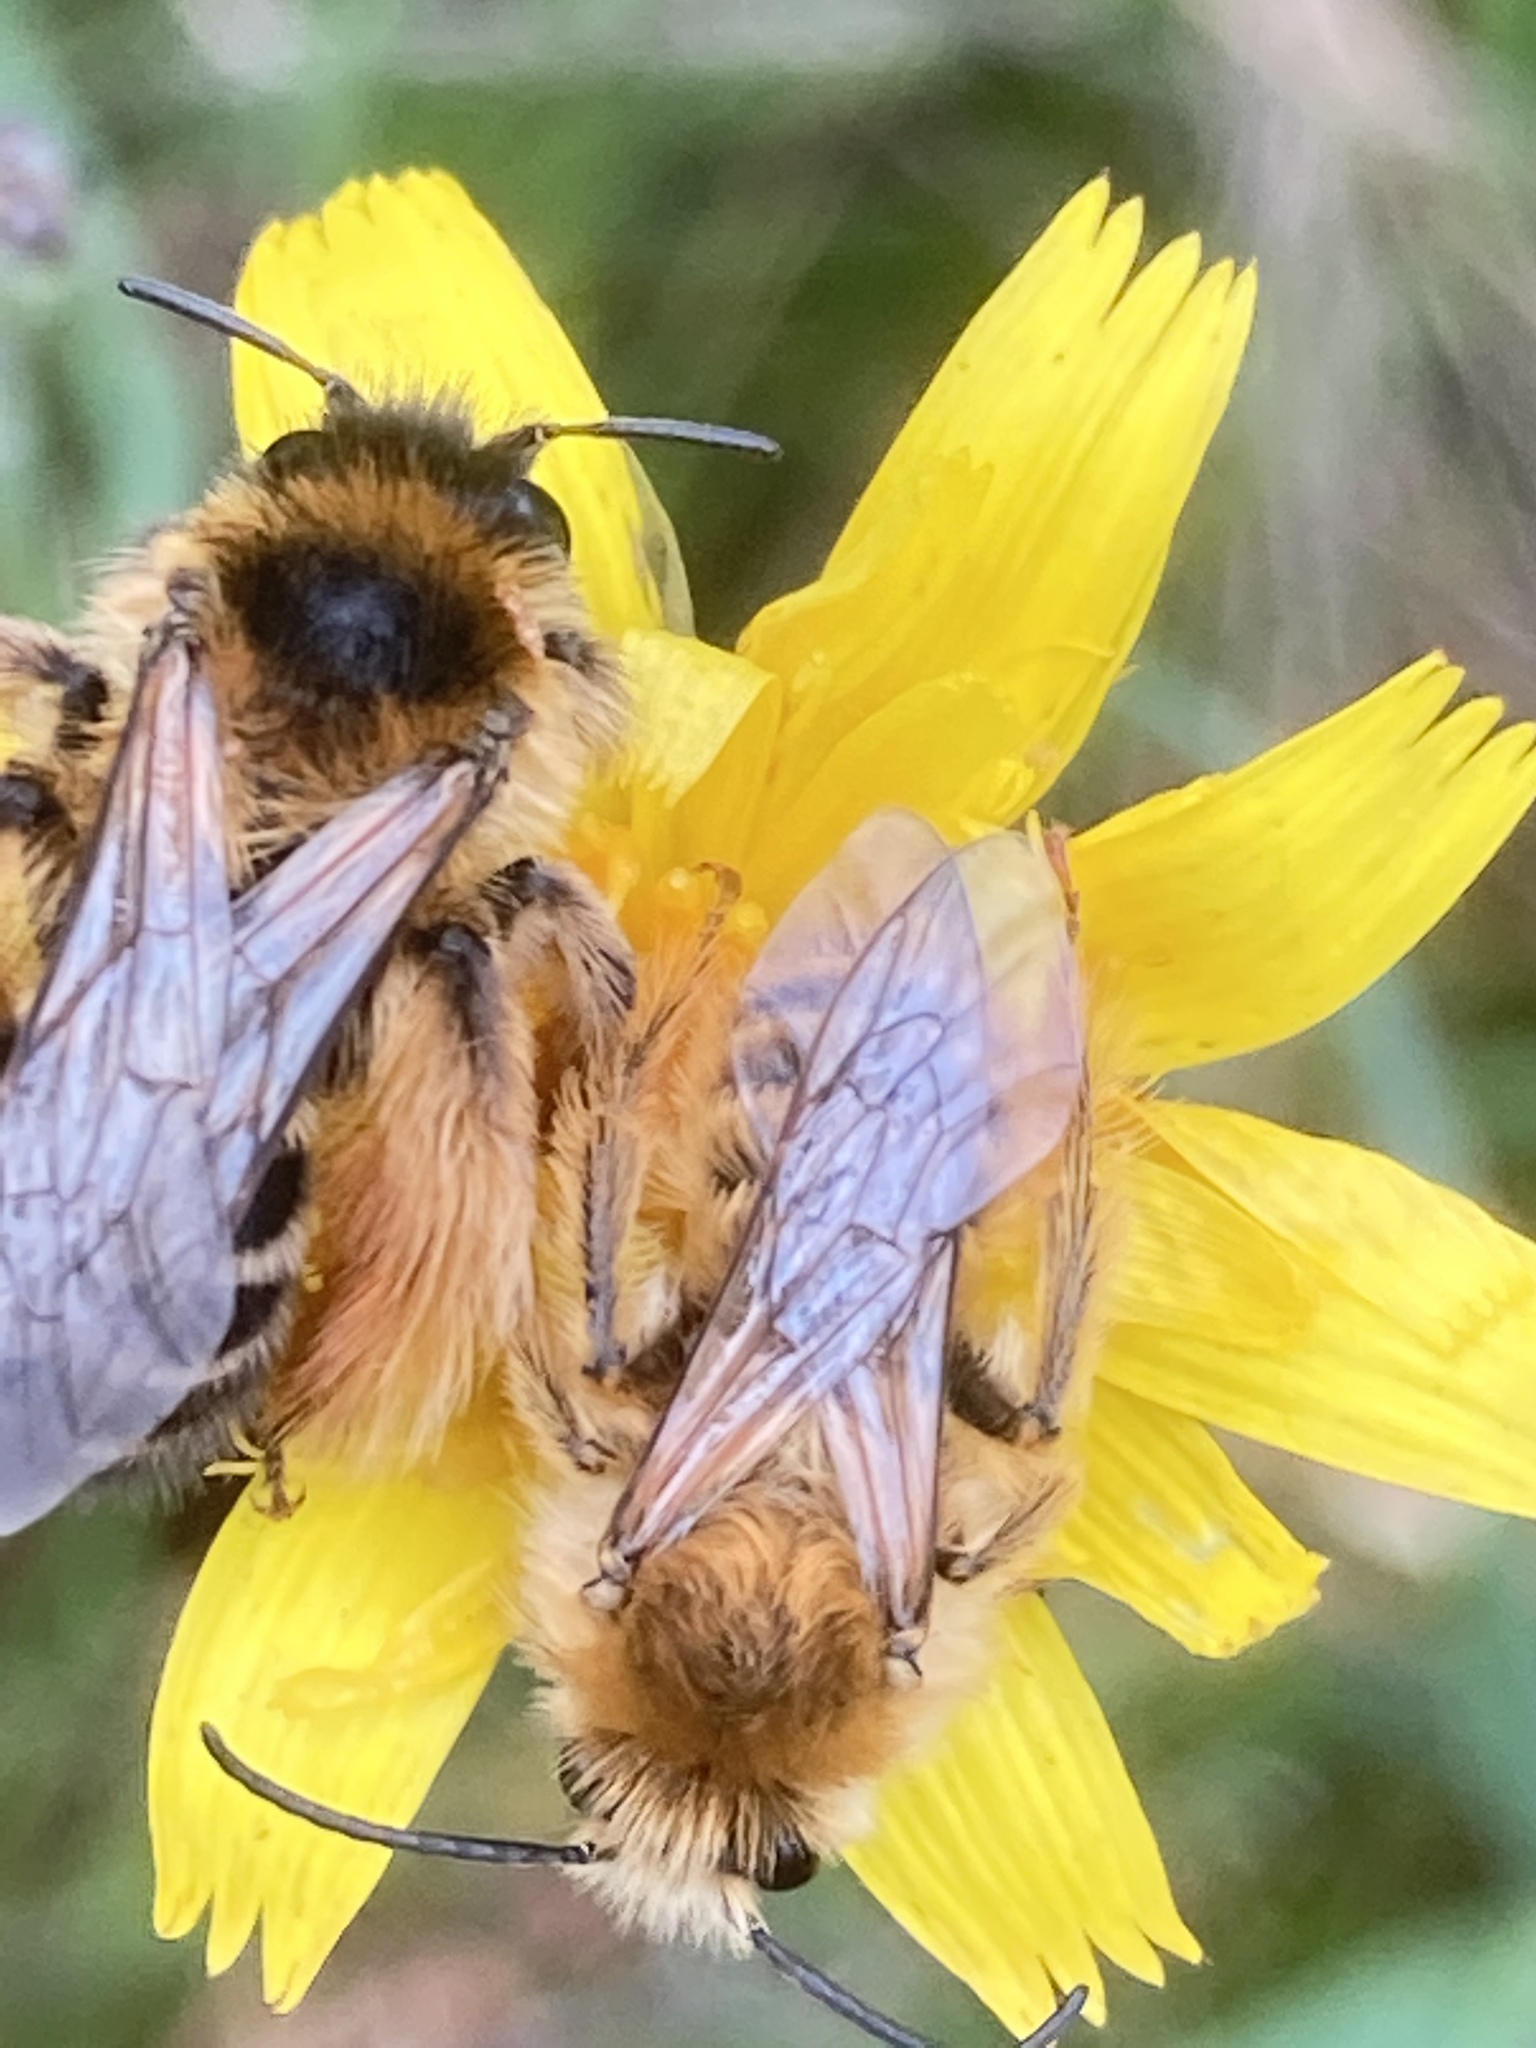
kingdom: Animalia
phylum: Arthropoda
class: Insecta
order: Hymenoptera
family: Melittidae
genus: Dasypoda
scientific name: Dasypoda hirtipes
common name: Pantaloon bee
